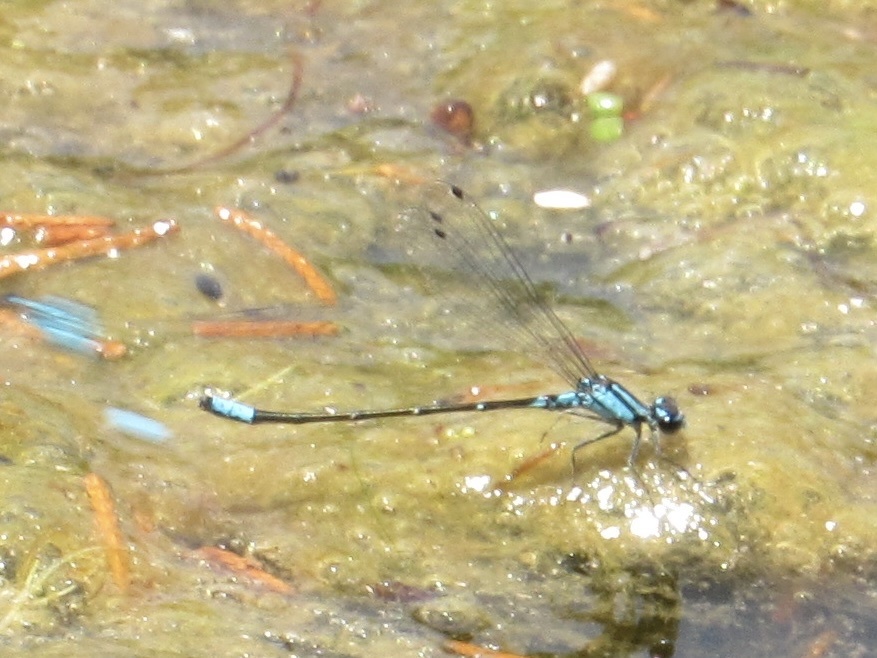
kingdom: Animalia
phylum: Arthropoda
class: Insecta
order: Odonata
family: Coenagrionidae
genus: Enallagma
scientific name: Enallagma geminatum
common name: Skimming bluet
